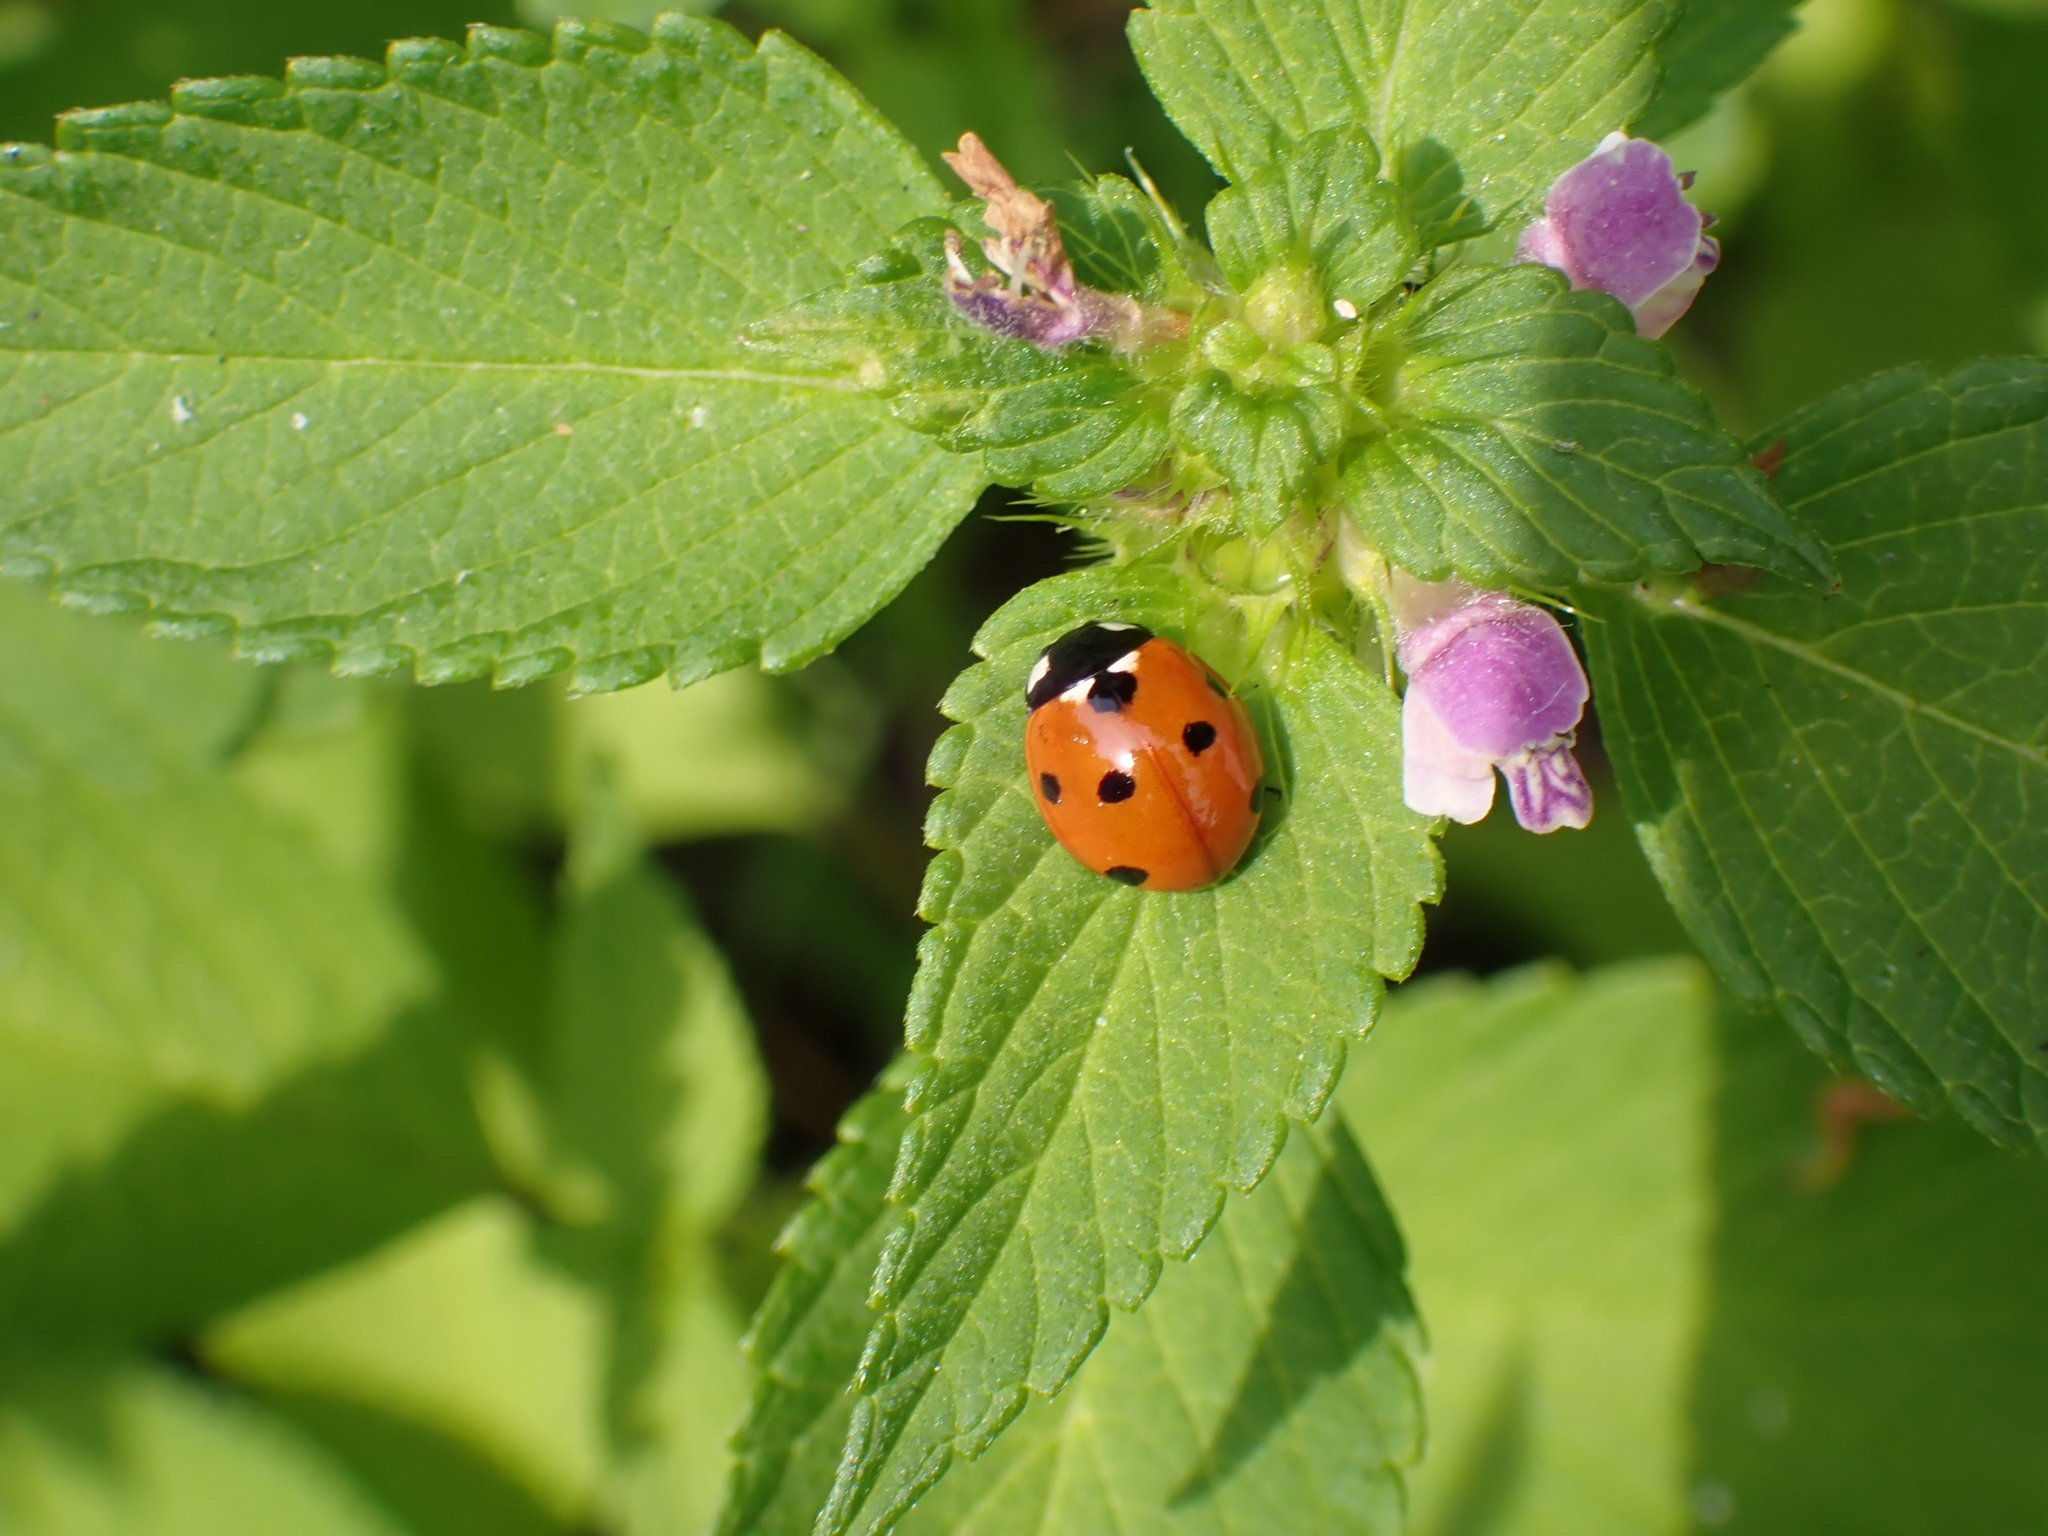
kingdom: Animalia
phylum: Arthropoda
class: Insecta
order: Coleoptera
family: Coccinellidae
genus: Coccinella
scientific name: Coccinella septempunctata
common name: Sevenspotted lady beetle
